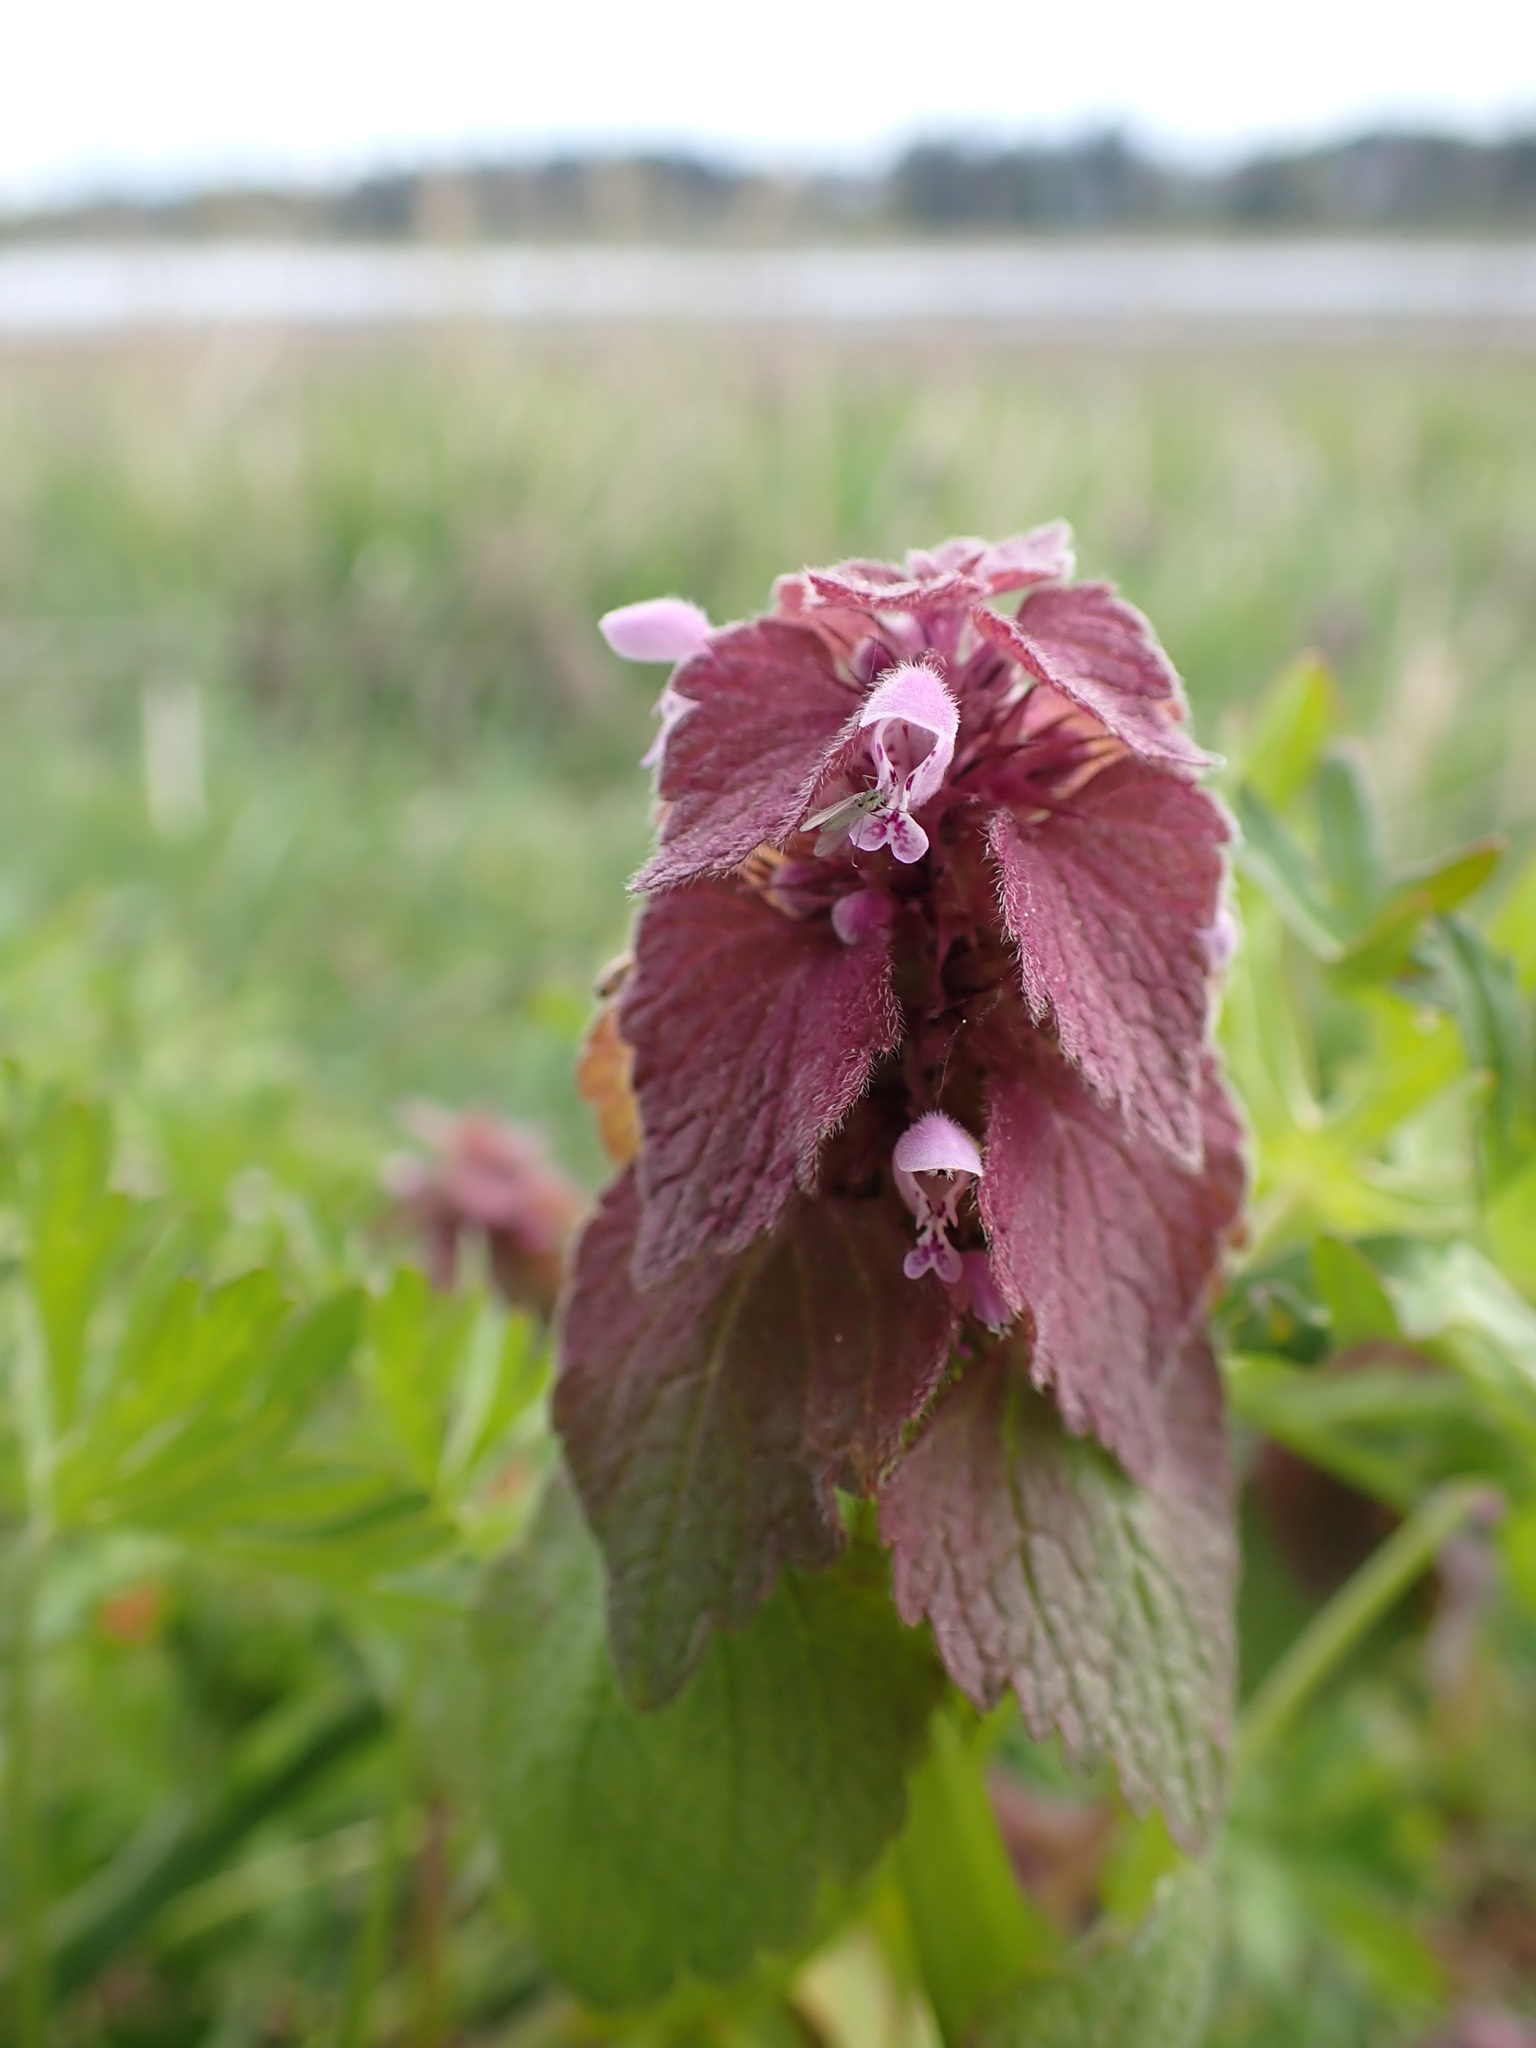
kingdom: Plantae
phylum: Tracheophyta
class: Magnoliopsida
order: Lamiales
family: Lamiaceae
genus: Lamium
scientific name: Lamium purpureum
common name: Red dead-nettle
